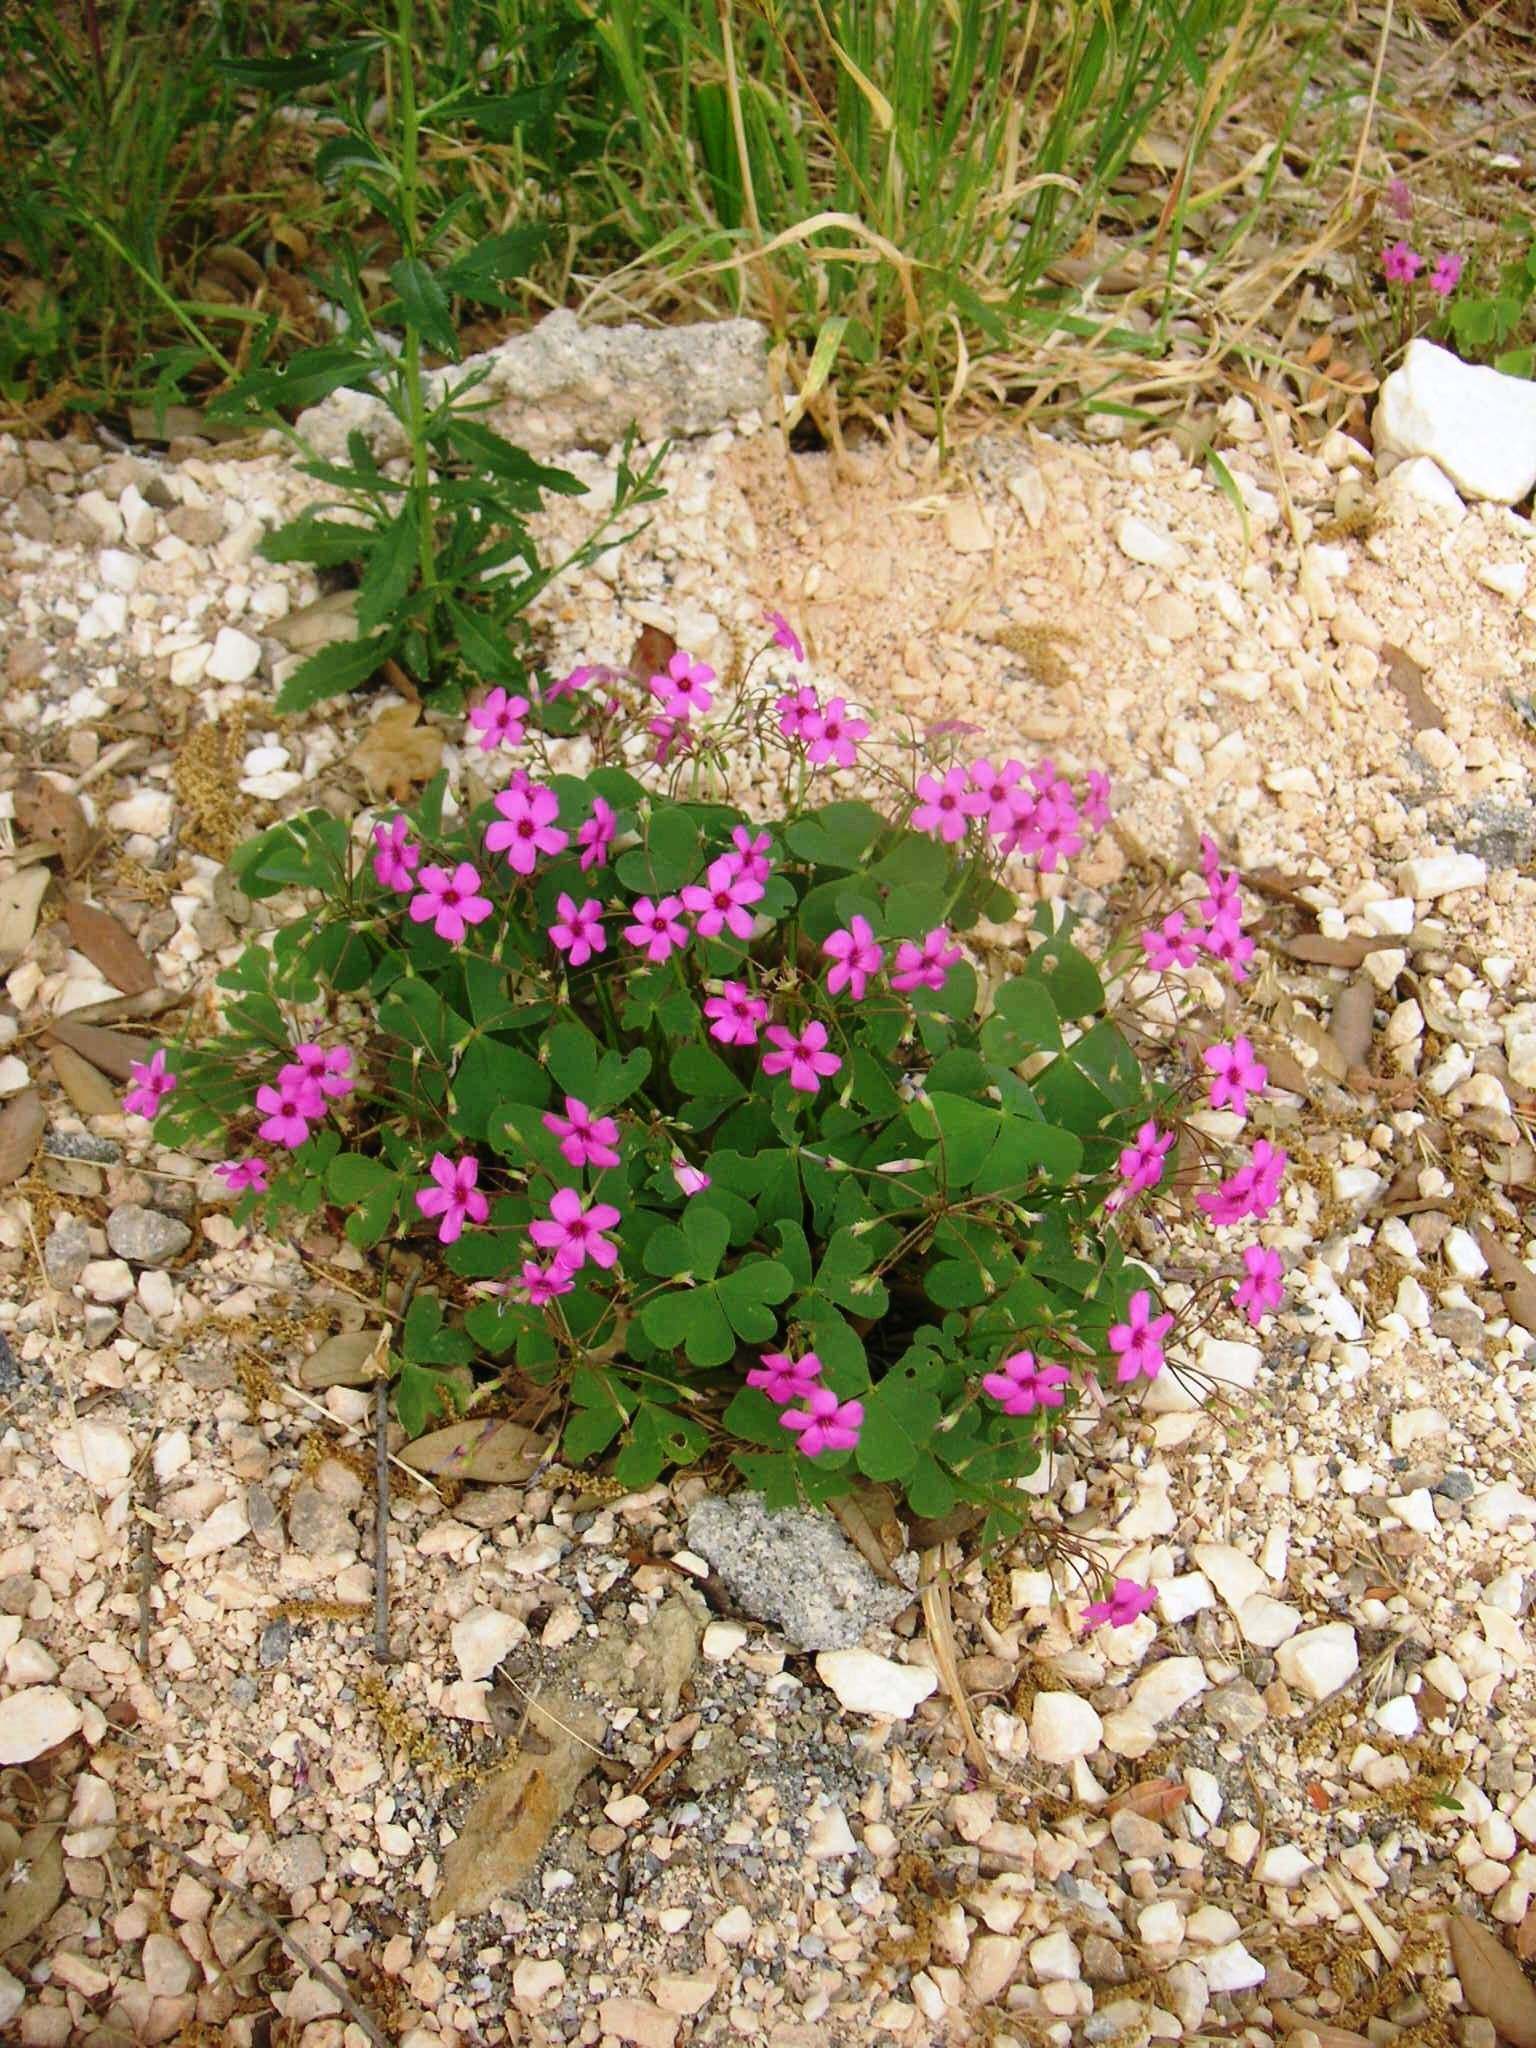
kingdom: Plantae
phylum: Tracheophyta
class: Magnoliopsida
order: Oxalidales
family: Oxalidaceae
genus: Oxalis
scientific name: Oxalis articulata
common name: Pink-sorrel
